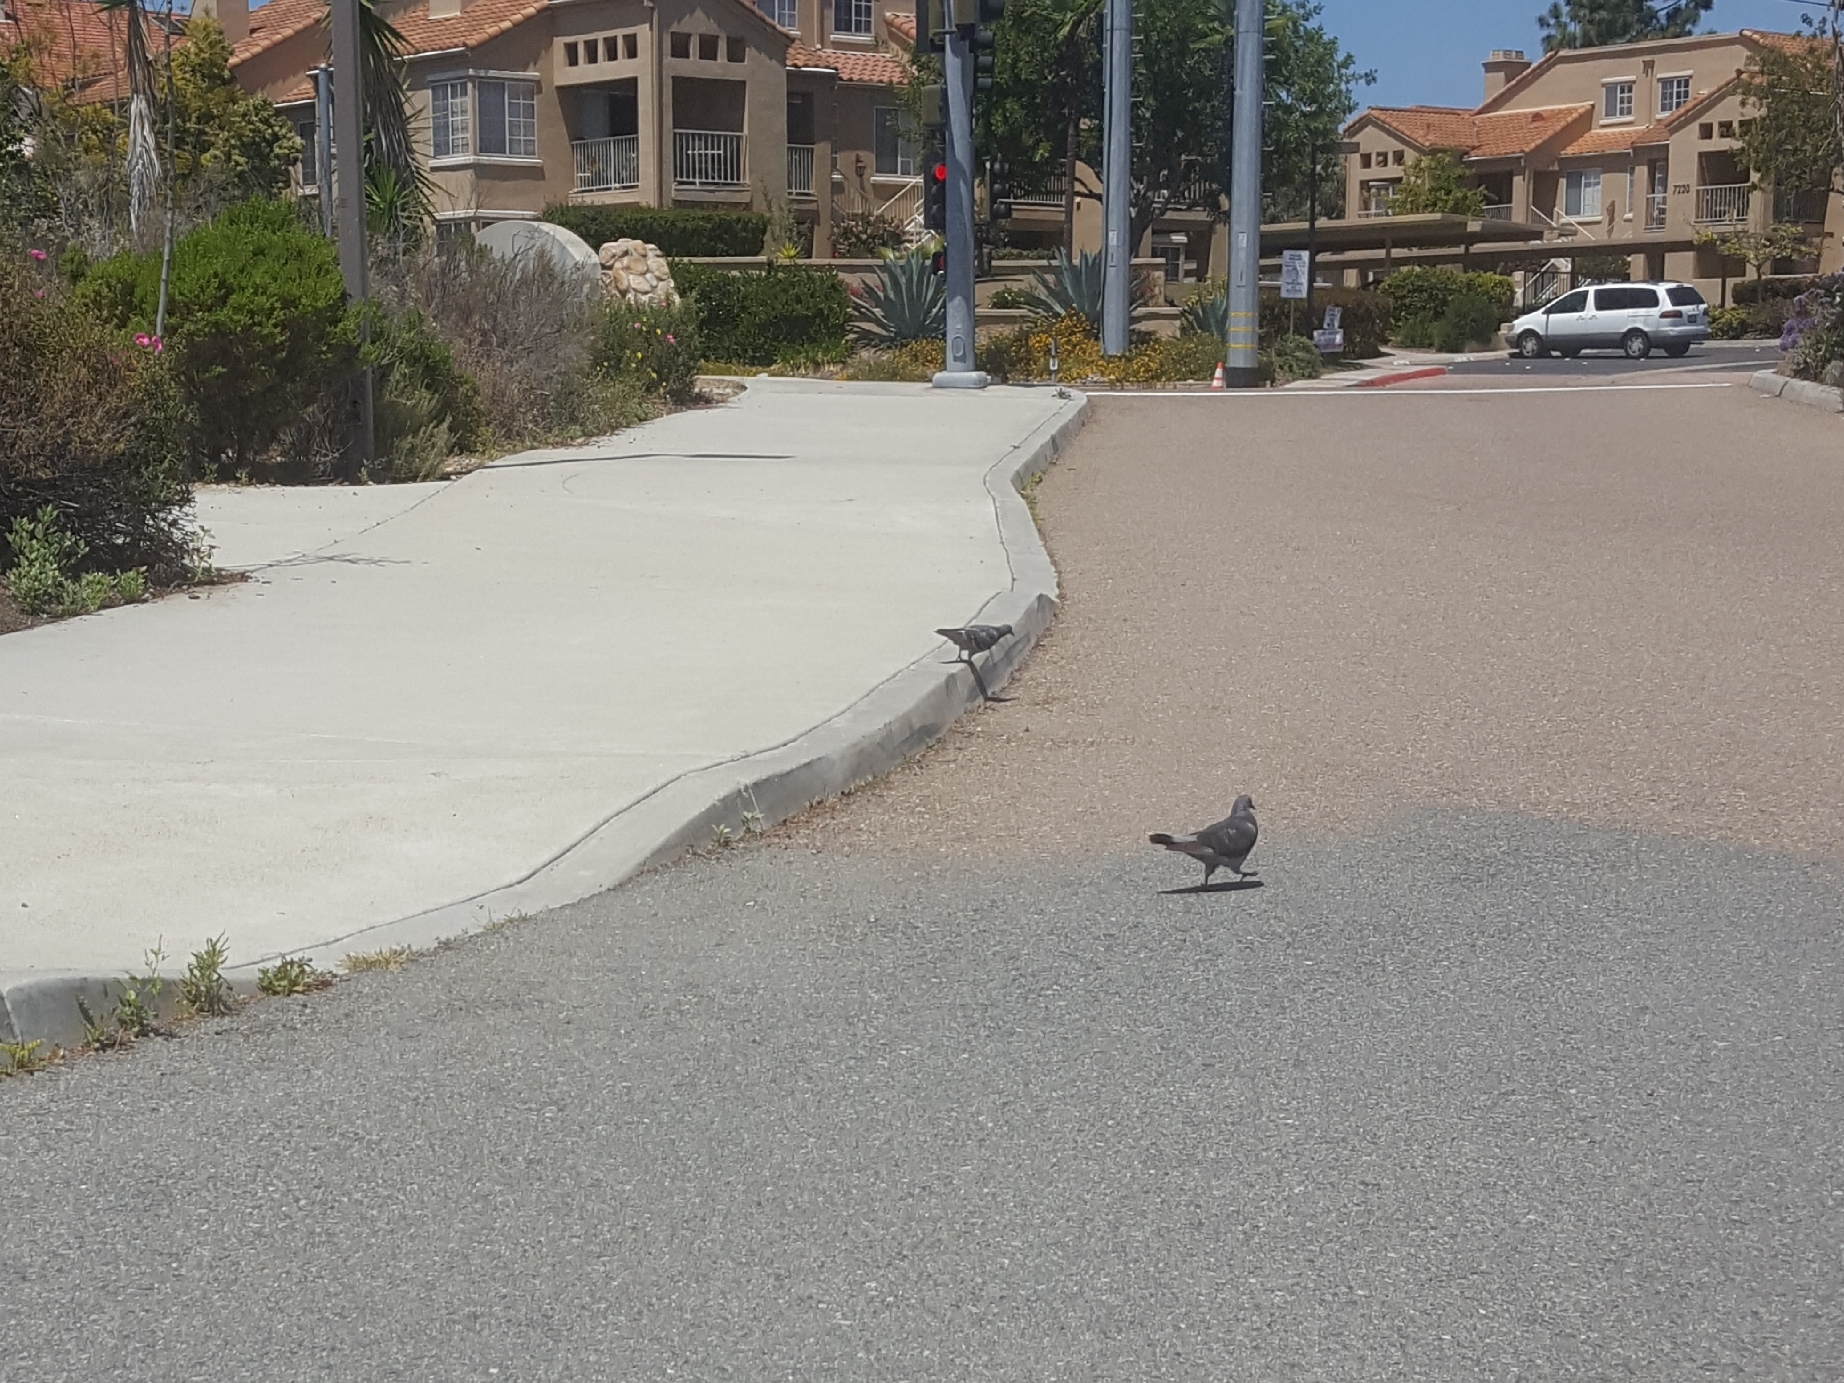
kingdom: Animalia
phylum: Chordata
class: Aves
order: Columbiformes
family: Columbidae
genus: Columba
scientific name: Columba livia
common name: Rock pigeon
